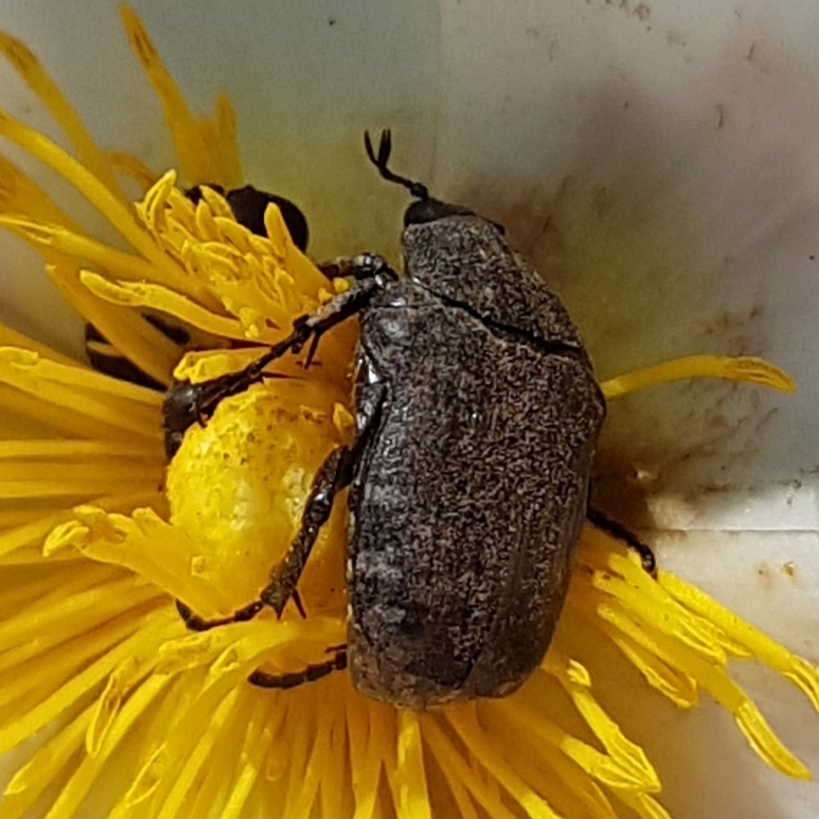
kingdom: Animalia
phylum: Arthropoda
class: Insecta
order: Coleoptera
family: Scarabaeidae
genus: Oxythyrea
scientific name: Oxythyrea funesta
